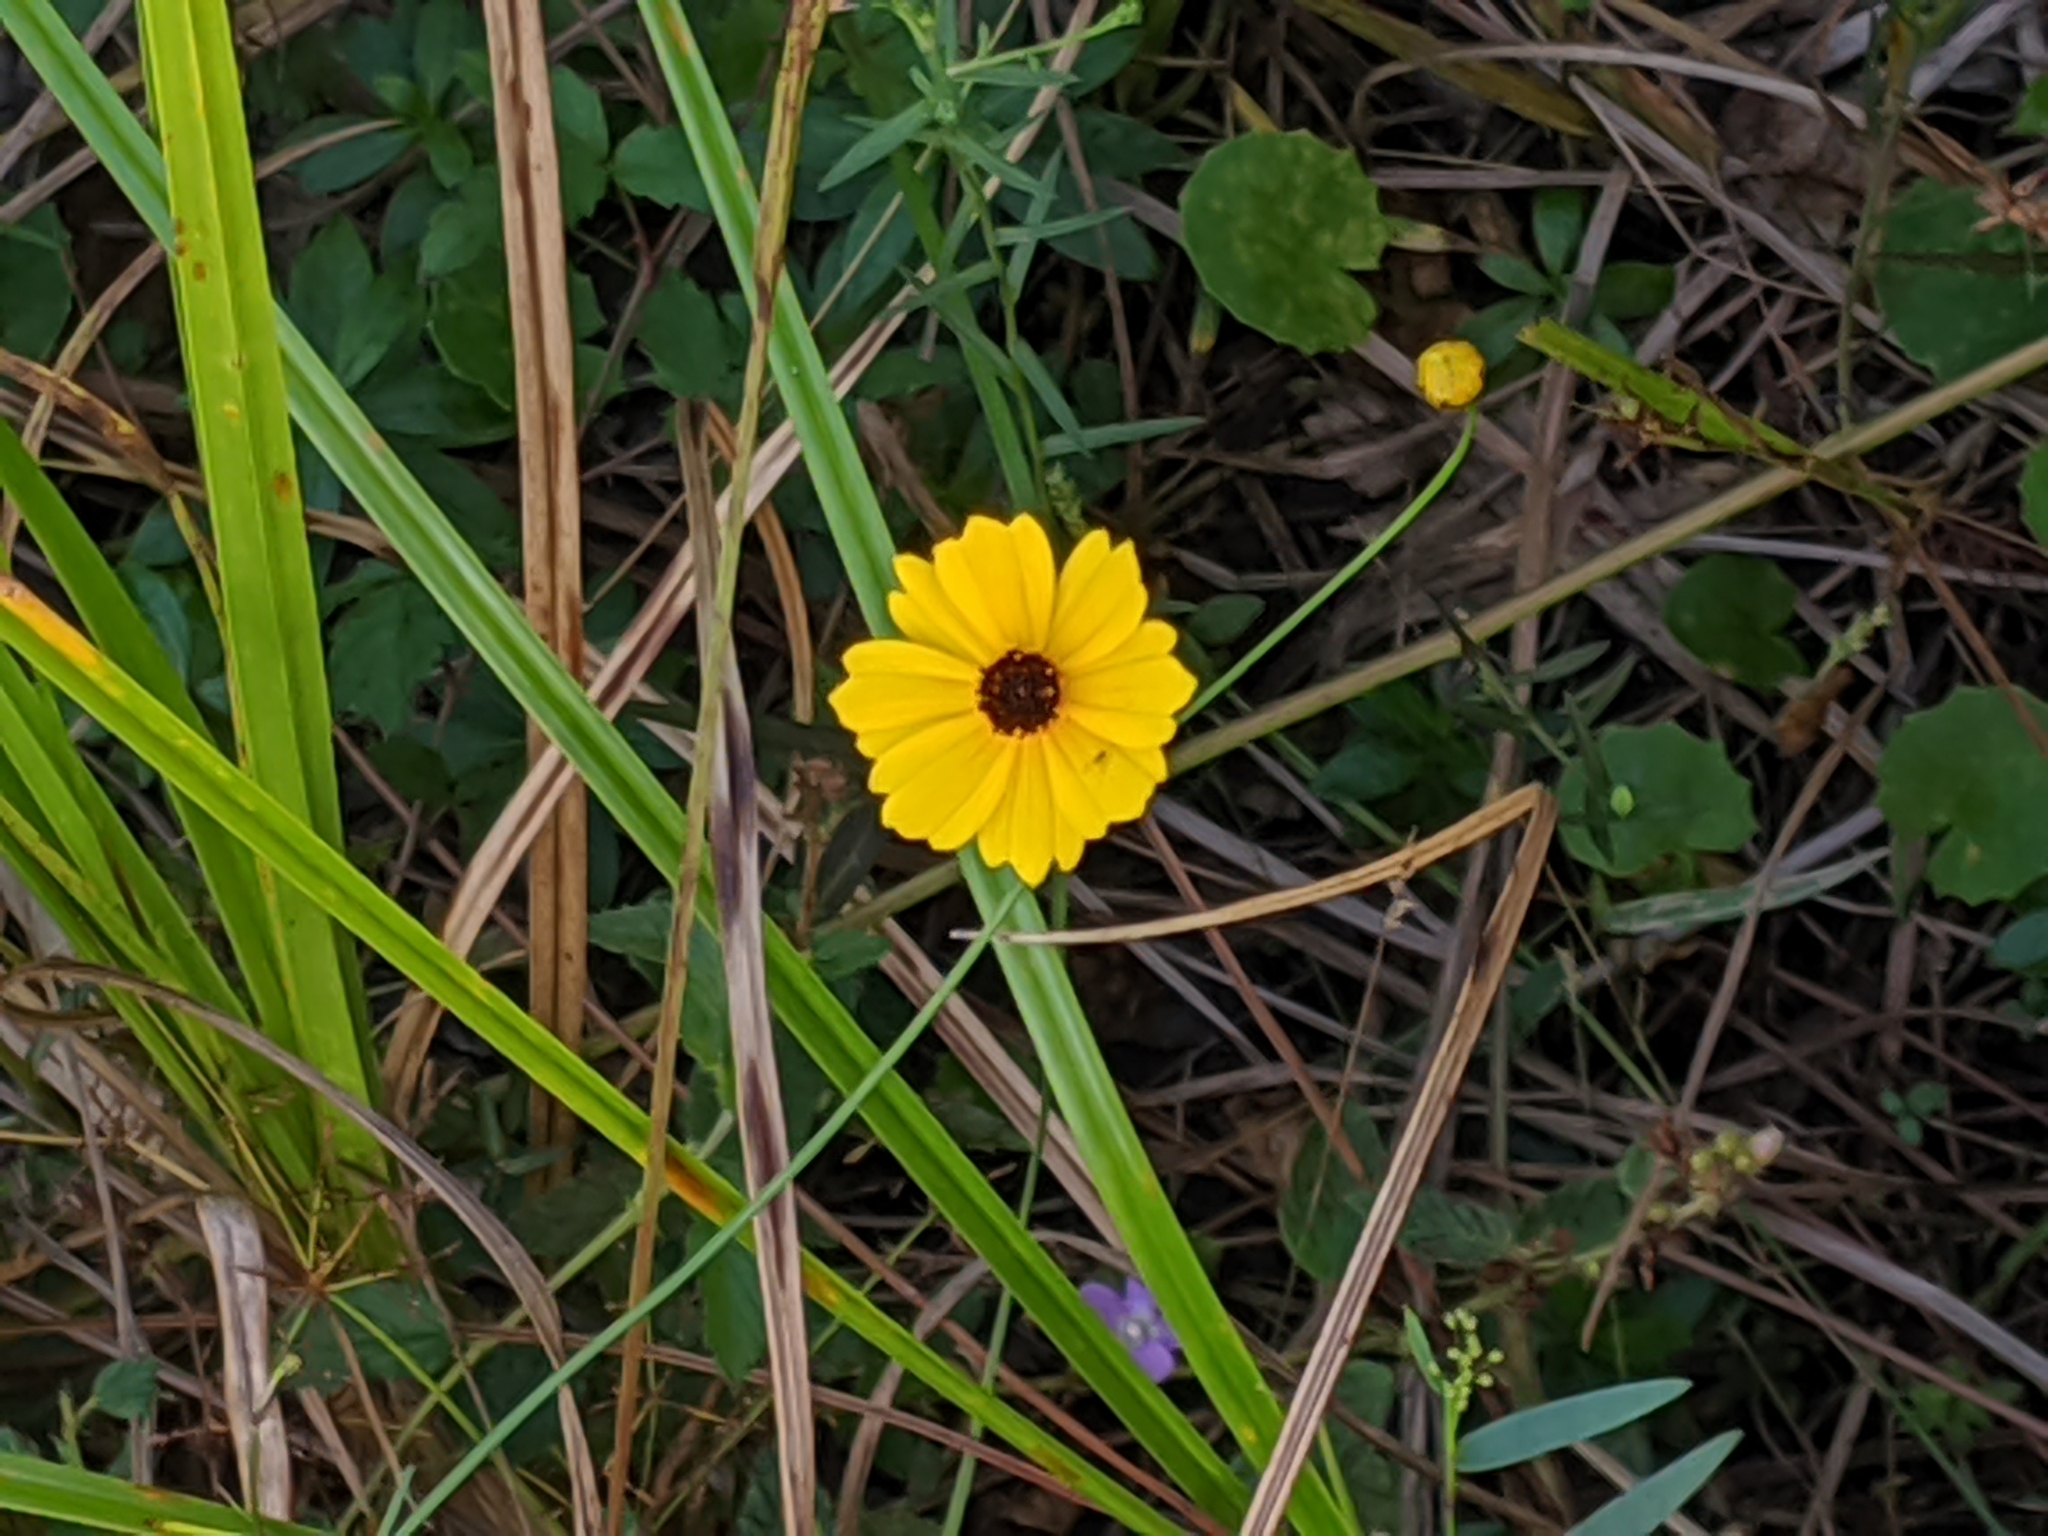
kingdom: Plantae
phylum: Tracheophyta
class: Magnoliopsida
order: Asterales
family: Asteraceae
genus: Coreopsis
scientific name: Coreopsis leavenworthii
